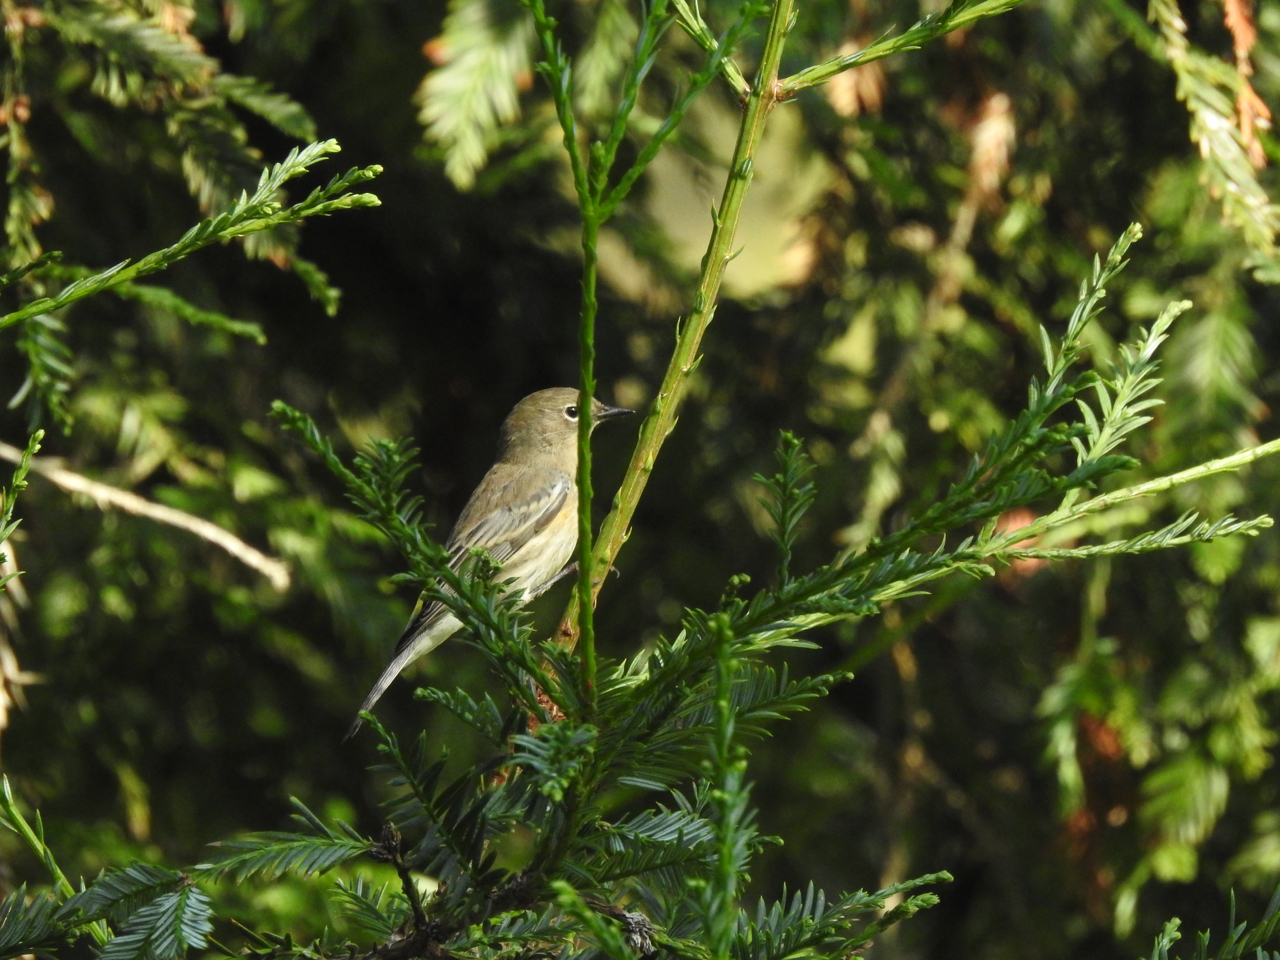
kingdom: Animalia
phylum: Chordata
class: Aves
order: Passeriformes
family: Parulidae
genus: Setophaga
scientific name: Setophaga auduboni
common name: Audubon's warbler
